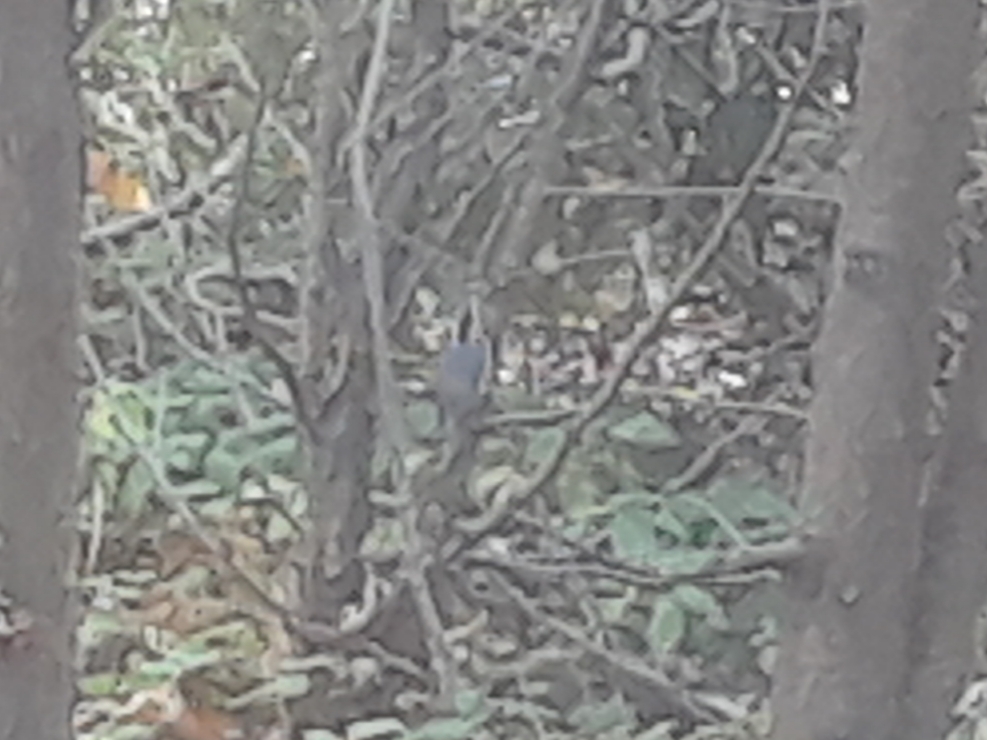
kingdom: Animalia
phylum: Chordata
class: Aves
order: Passeriformes
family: Sittidae
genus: Sitta
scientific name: Sitta canadensis
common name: Red-breasted nuthatch
